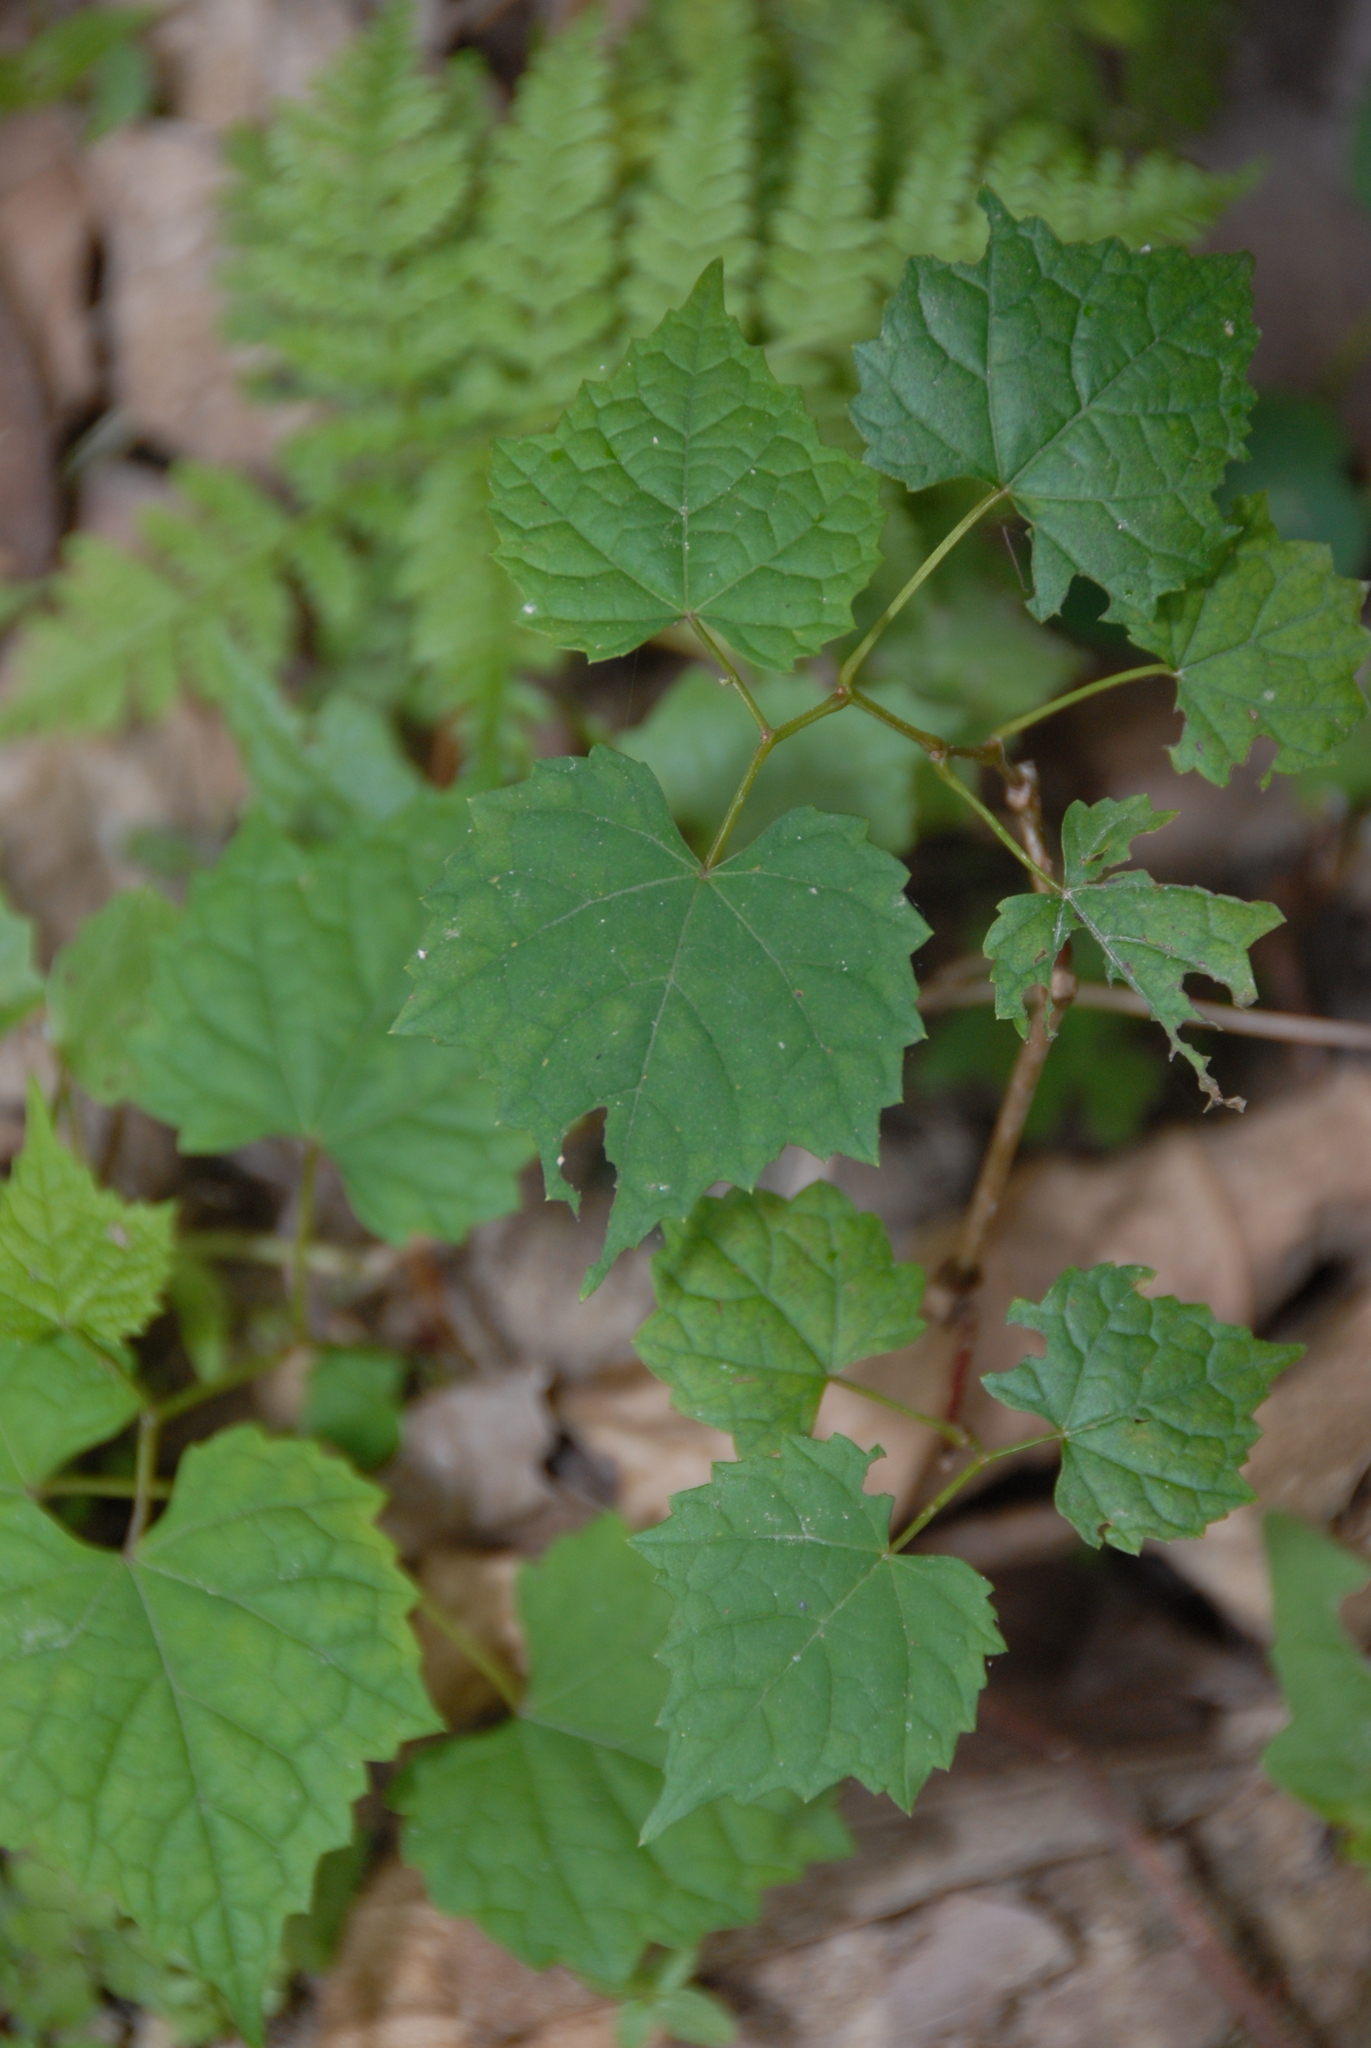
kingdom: Plantae
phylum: Tracheophyta
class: Magnoliopsida
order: Vitales
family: Vitaceae
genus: Ampelopsis
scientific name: Ampelopsis glandulosa
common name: Amur peppervine
